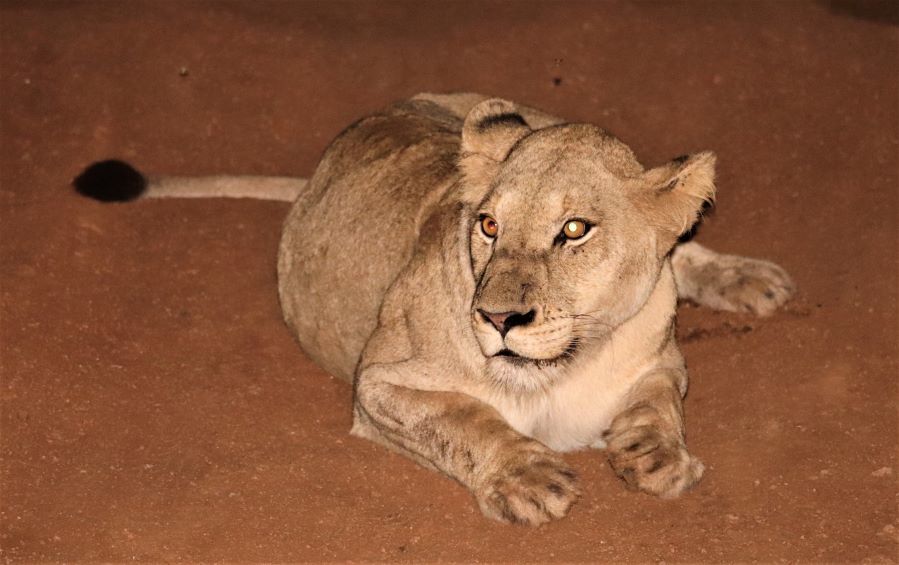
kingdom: Animalia
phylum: Chordata
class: Mammalia
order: Carnivora
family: Felidae
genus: Panthera
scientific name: Panthera leo
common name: Lion
